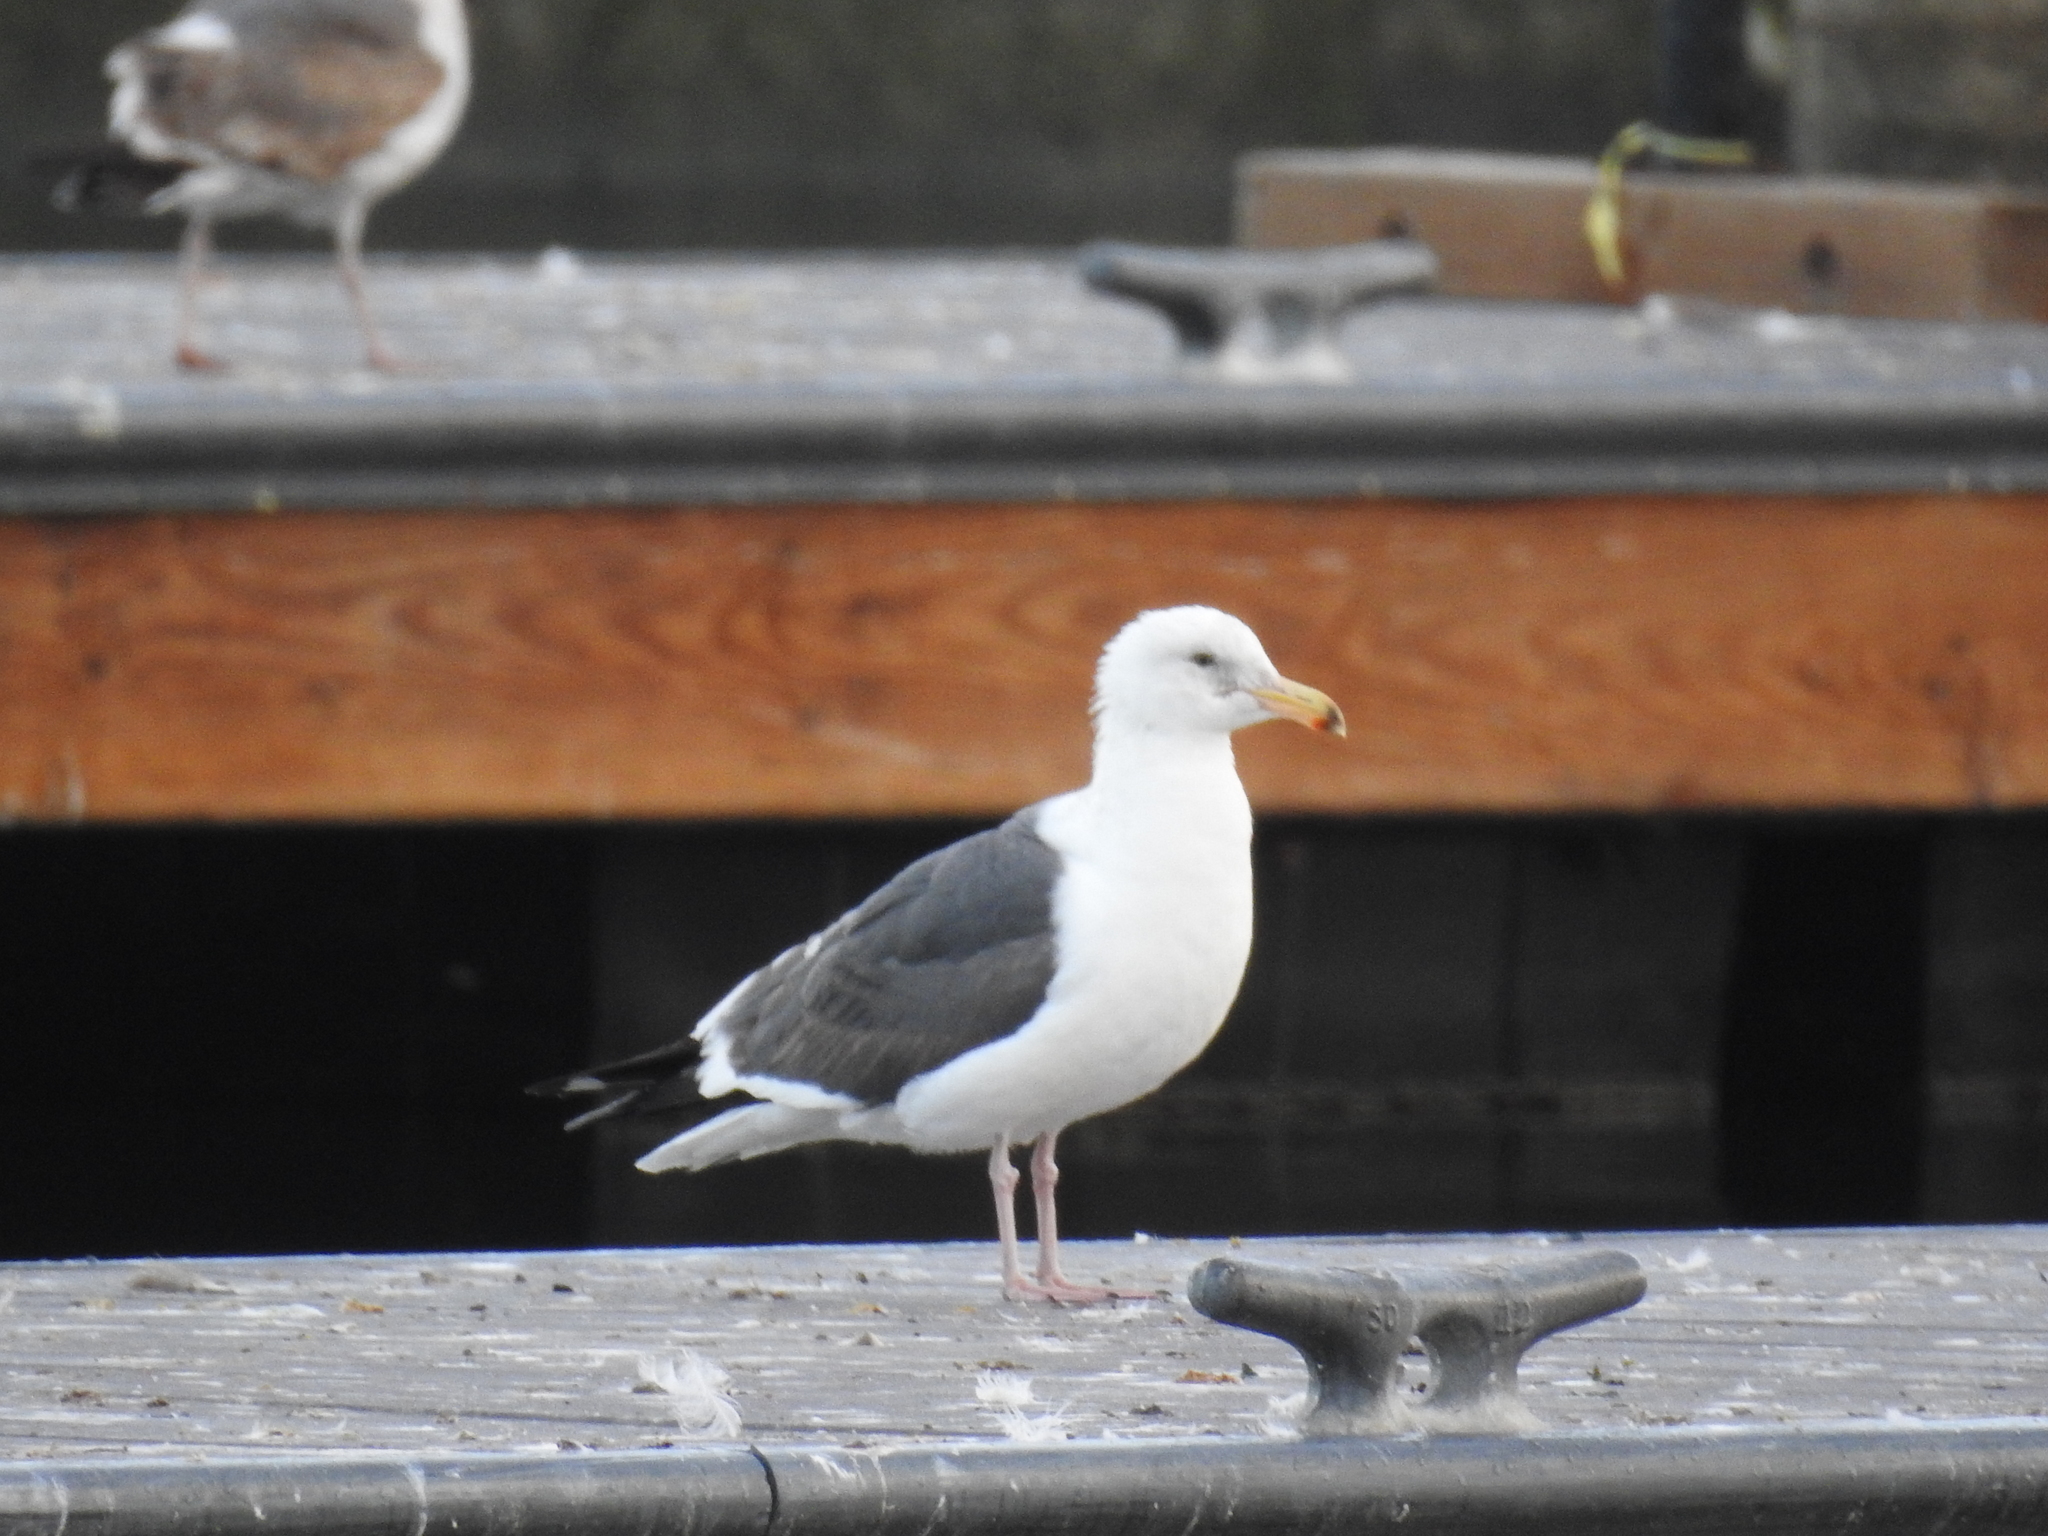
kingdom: Animalia
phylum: Chordata
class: Aves
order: Charadriiformes
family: Laridae
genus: Larus
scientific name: Larus occidentalis
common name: Western gull
